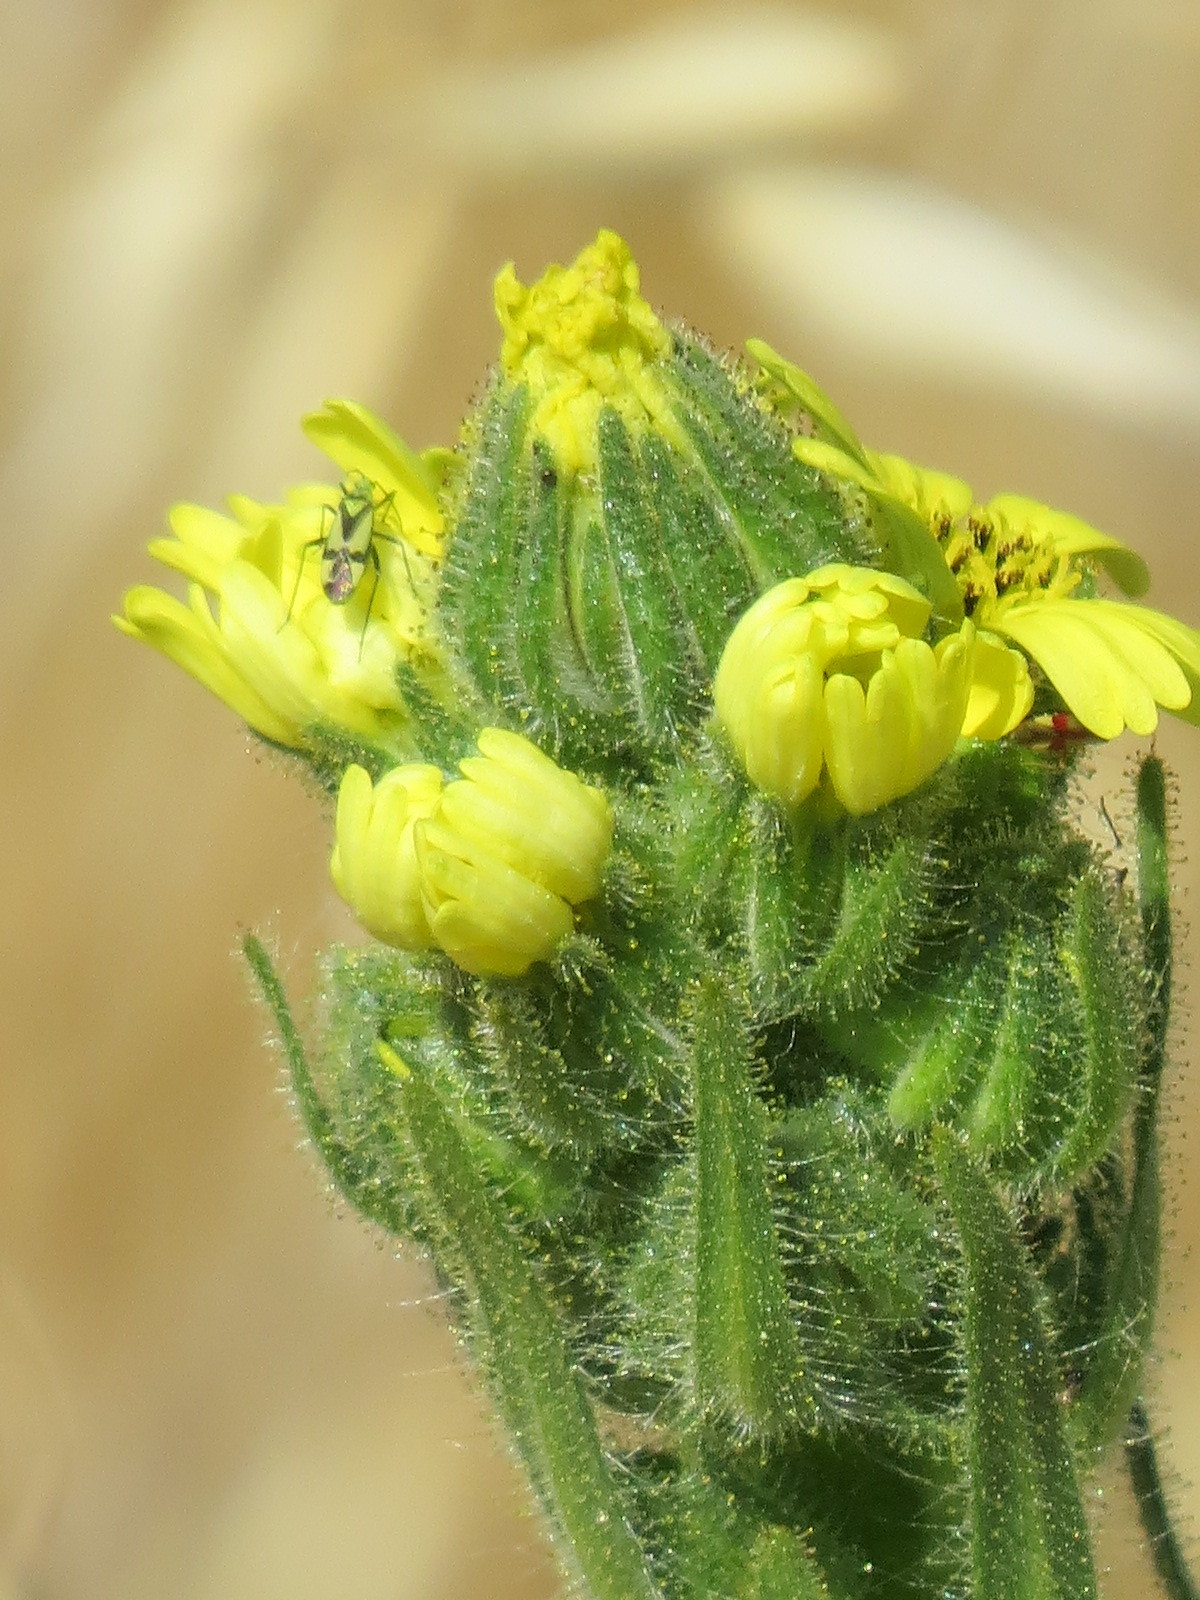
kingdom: Plantae
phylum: Tracheophyta
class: Magnoliopsida
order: Asterales
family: Asteraceae
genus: Madia
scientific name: Madia sativa
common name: Coast tarweed
